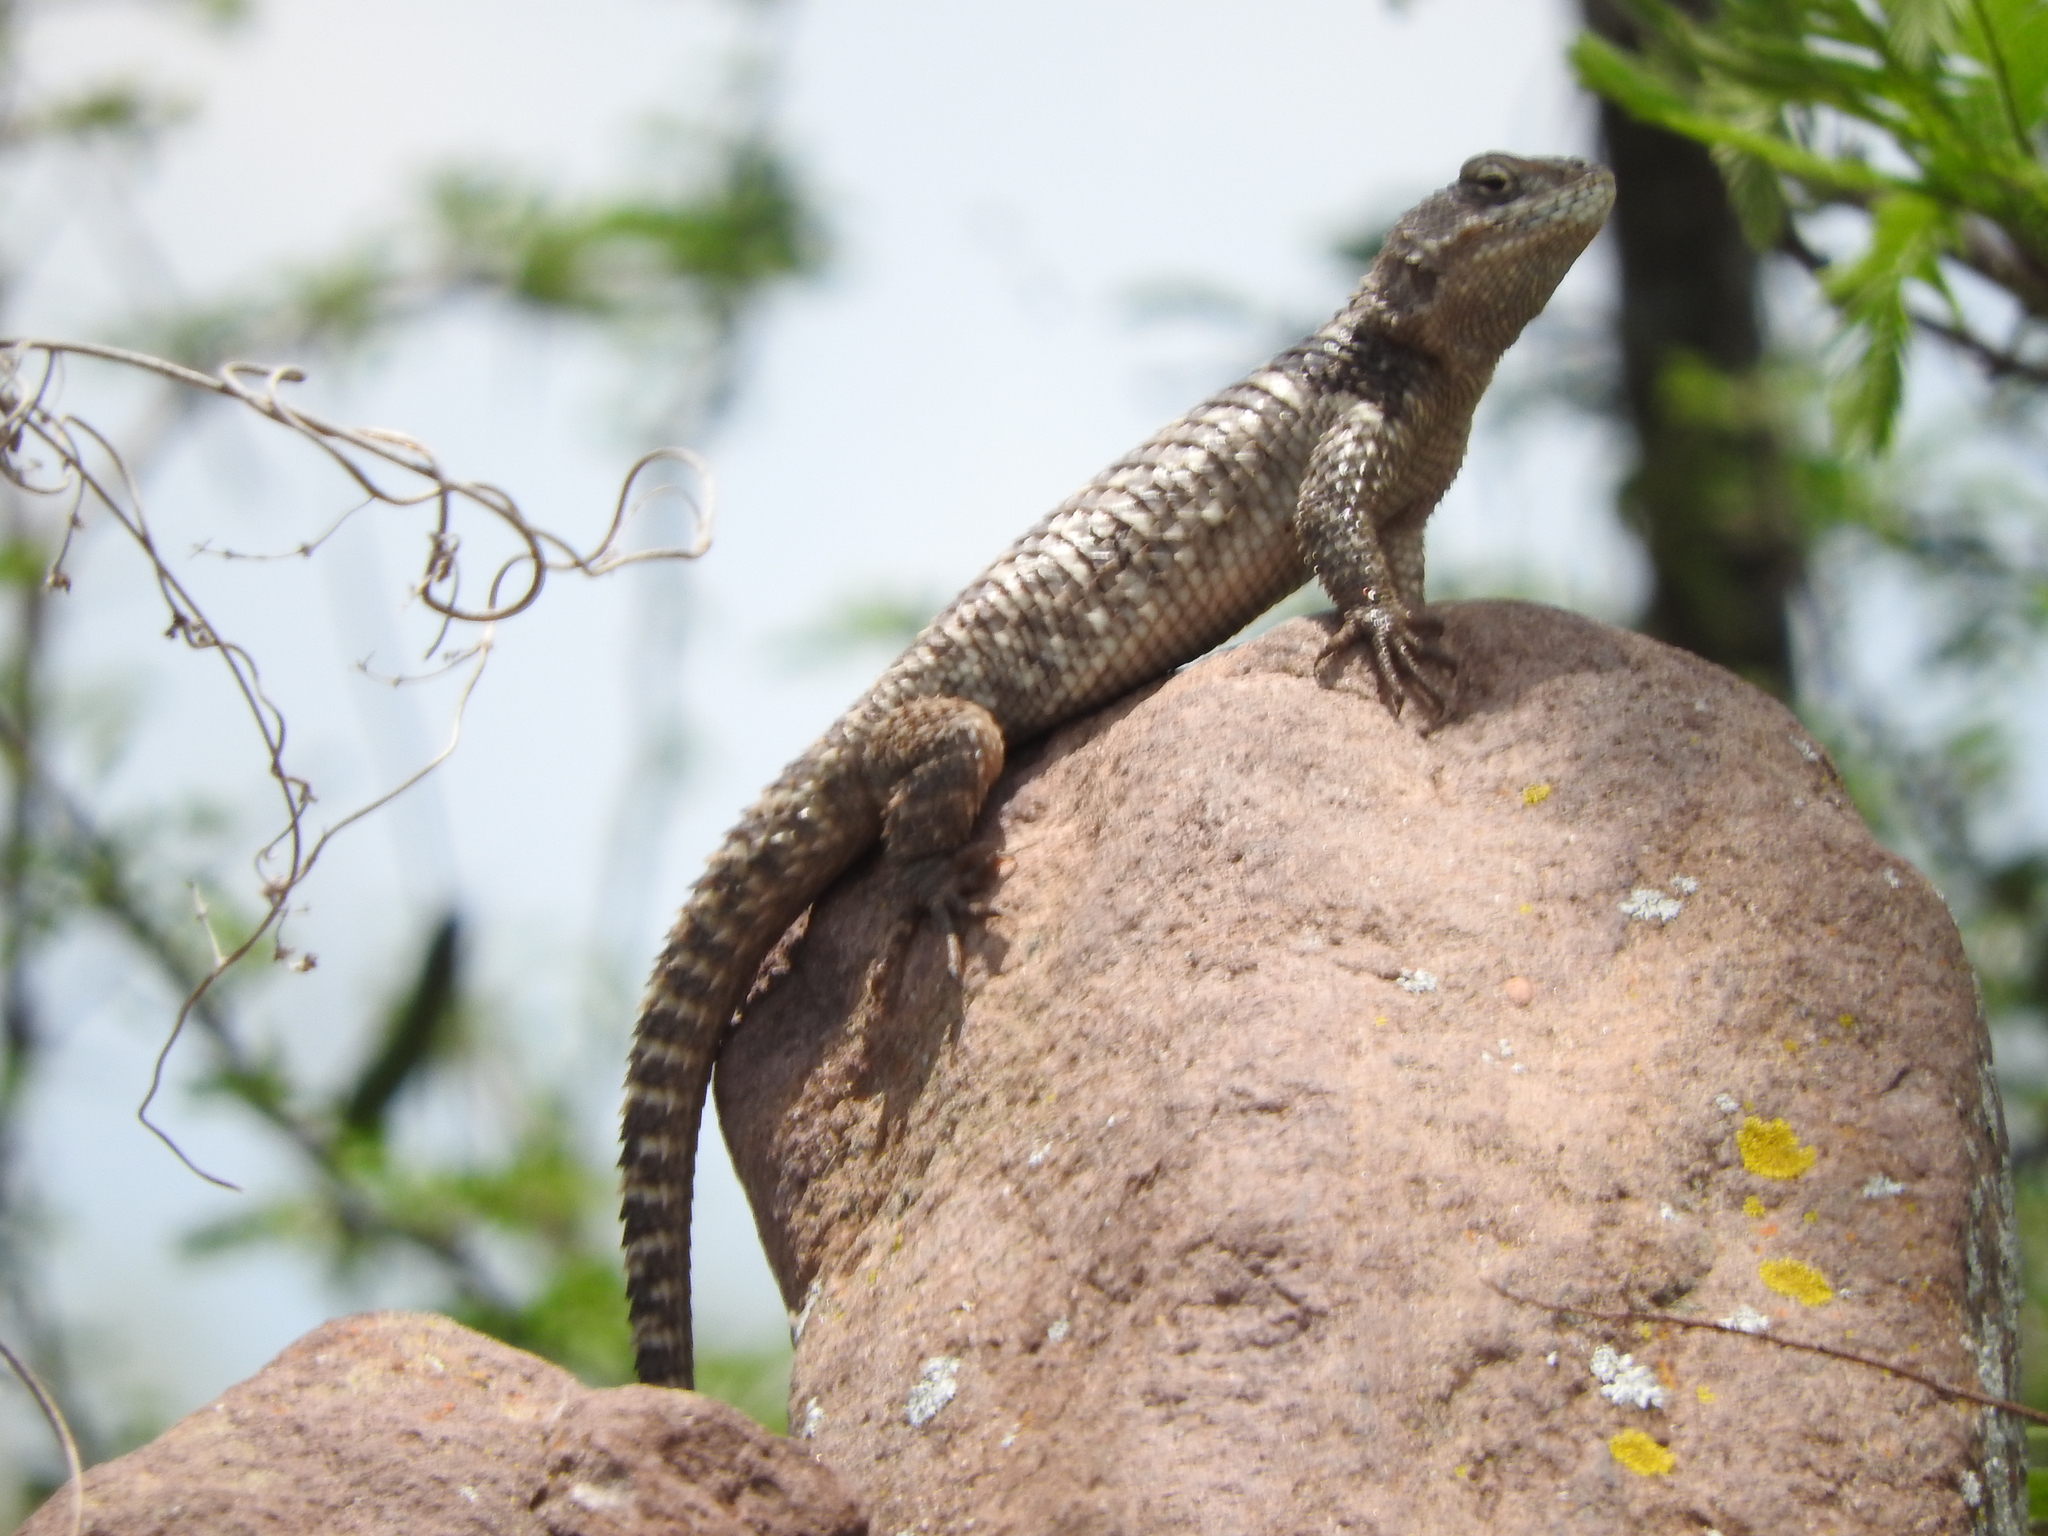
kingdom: Animalia
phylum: Chordata
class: Squamata
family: Phrynosomatidae
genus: Sceloporus
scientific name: Sceloporus torquatus
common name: Central plateau torquate lizard [melanogaster]
